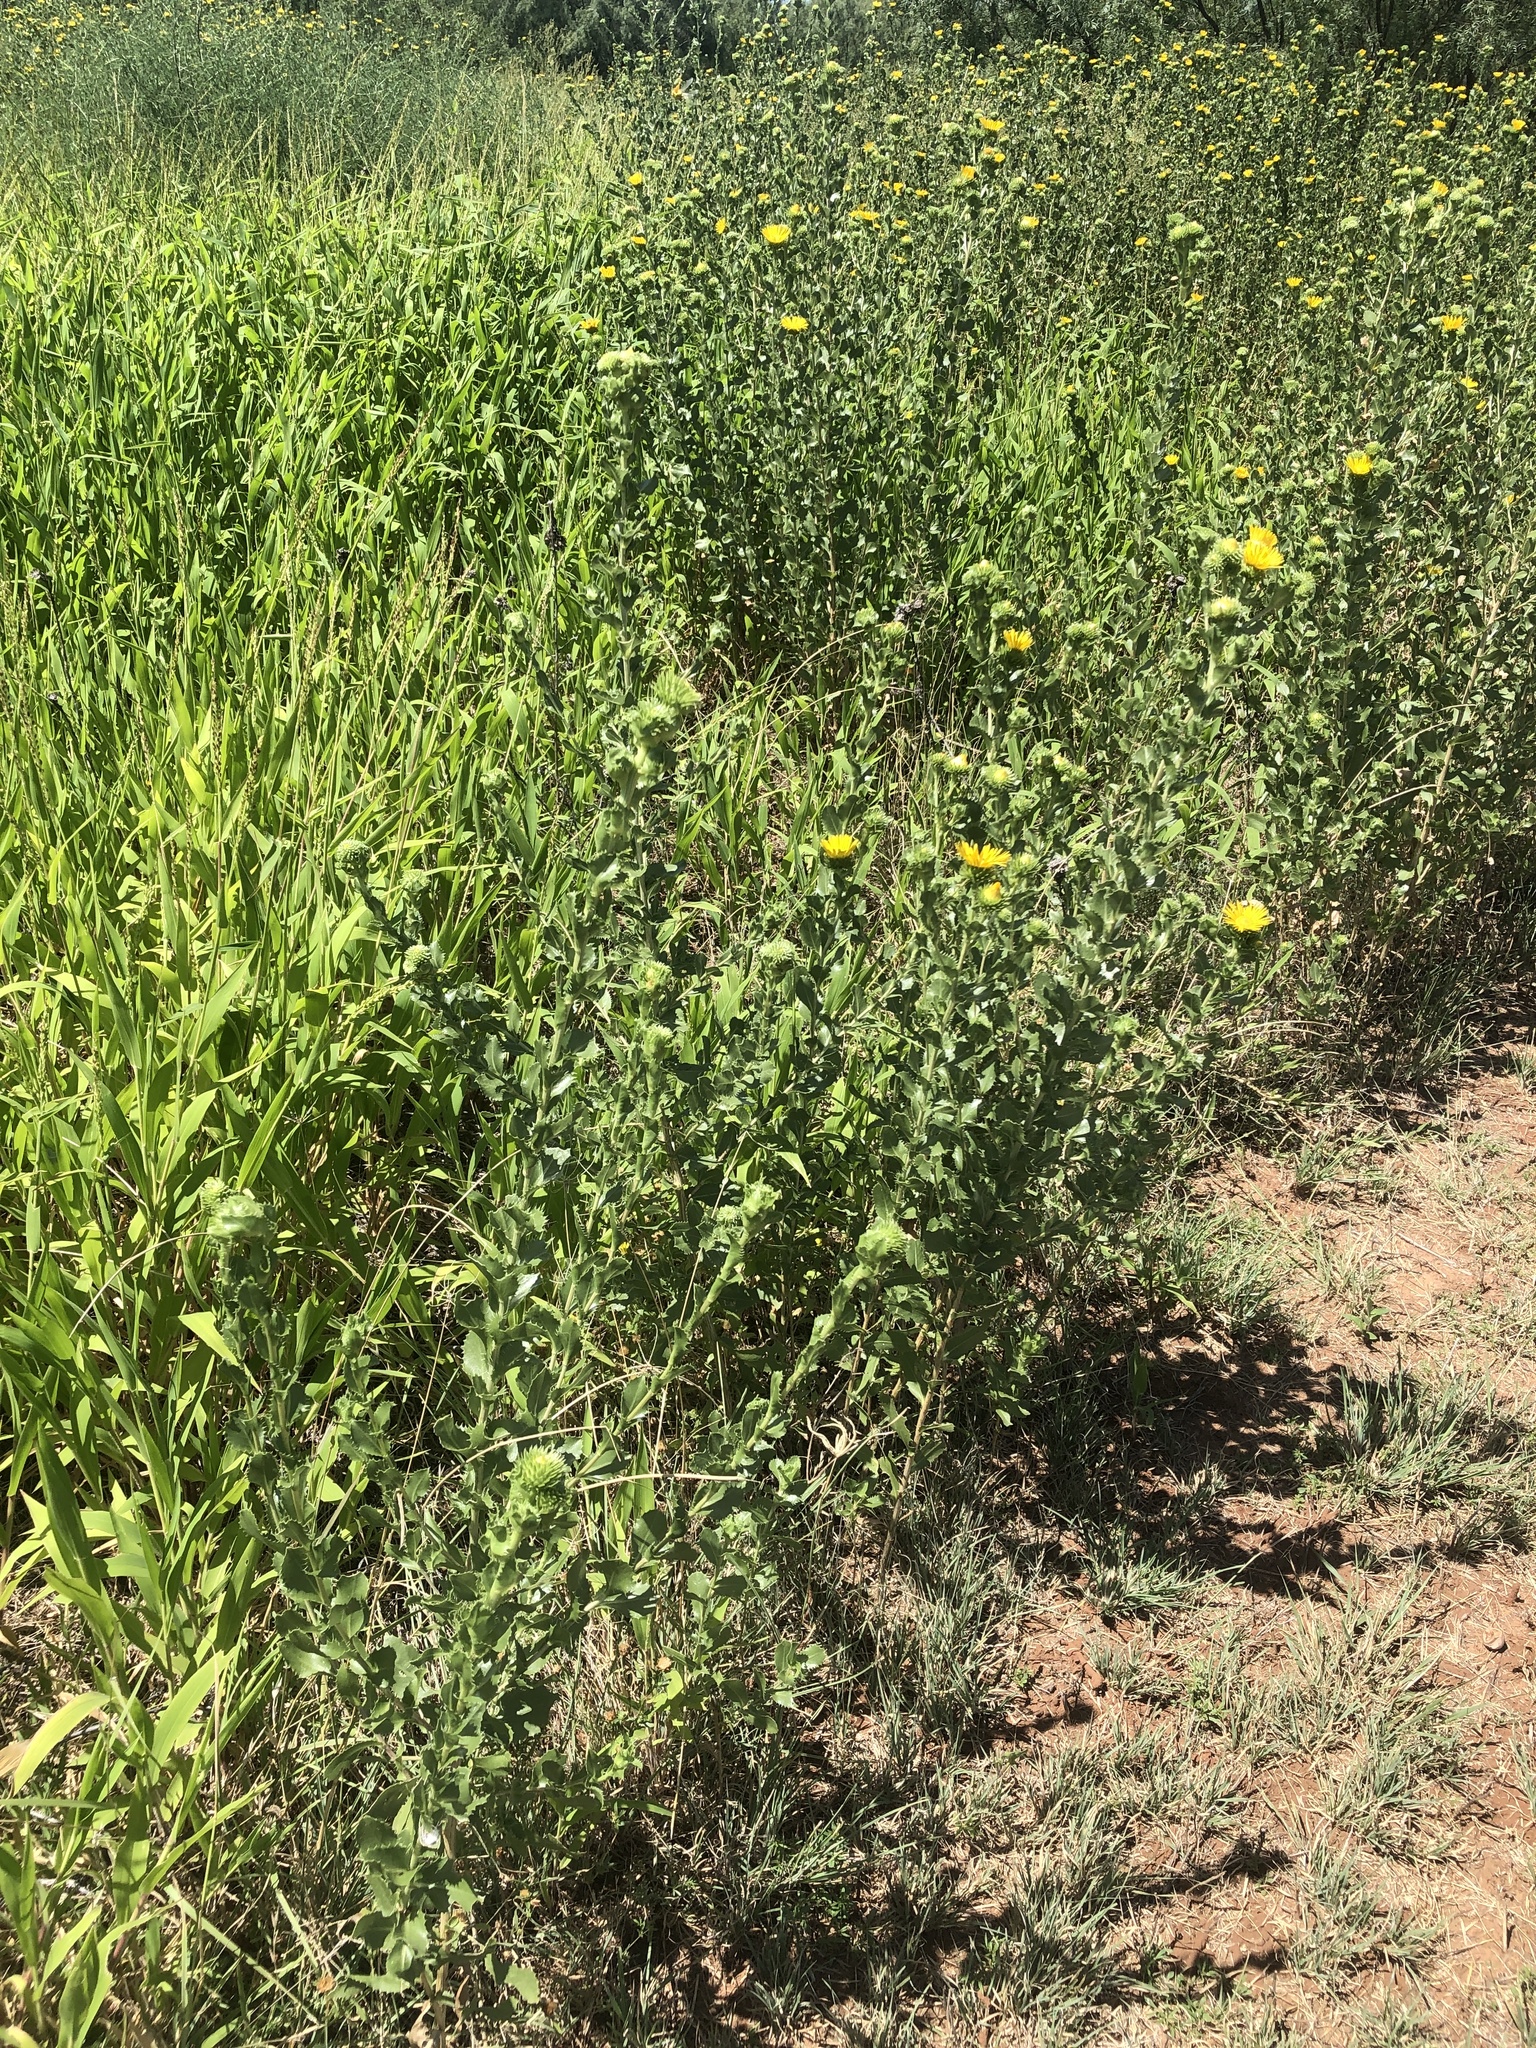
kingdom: Plantae
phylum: Tracheophyta
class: Magnoliopsida
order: Asterales
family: Asteraceae
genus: Grindelia
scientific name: Grindelia ciliata
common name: Goldenweed
